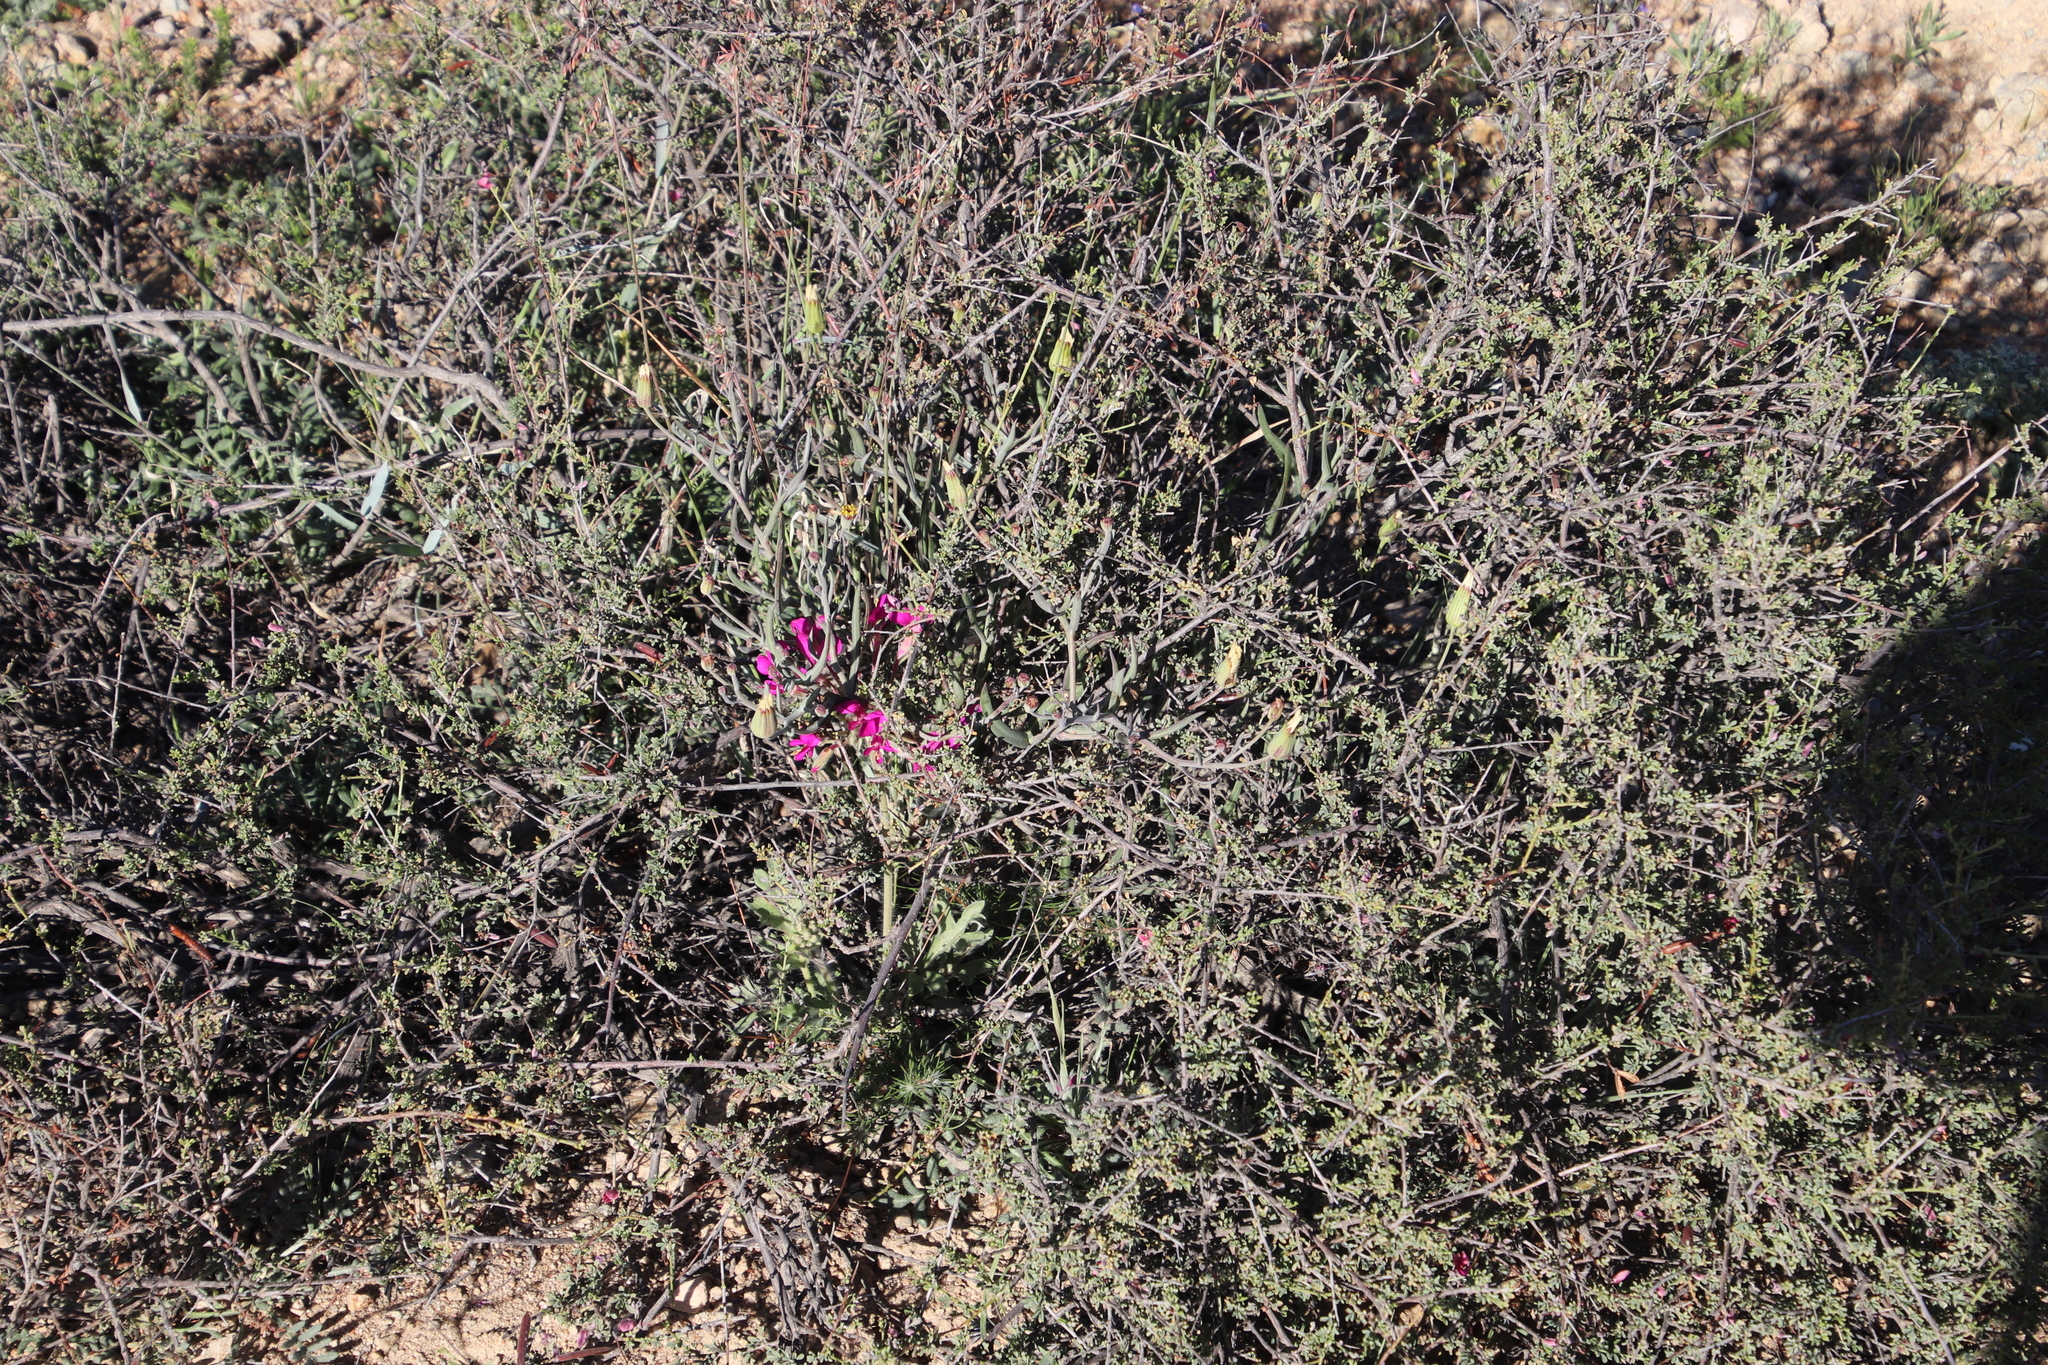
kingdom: Plantae
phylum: Tracheophyta
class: Magnoliopsida
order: Asterales
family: Asteraceae
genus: Othonna
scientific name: Othonna gymnodiscus
